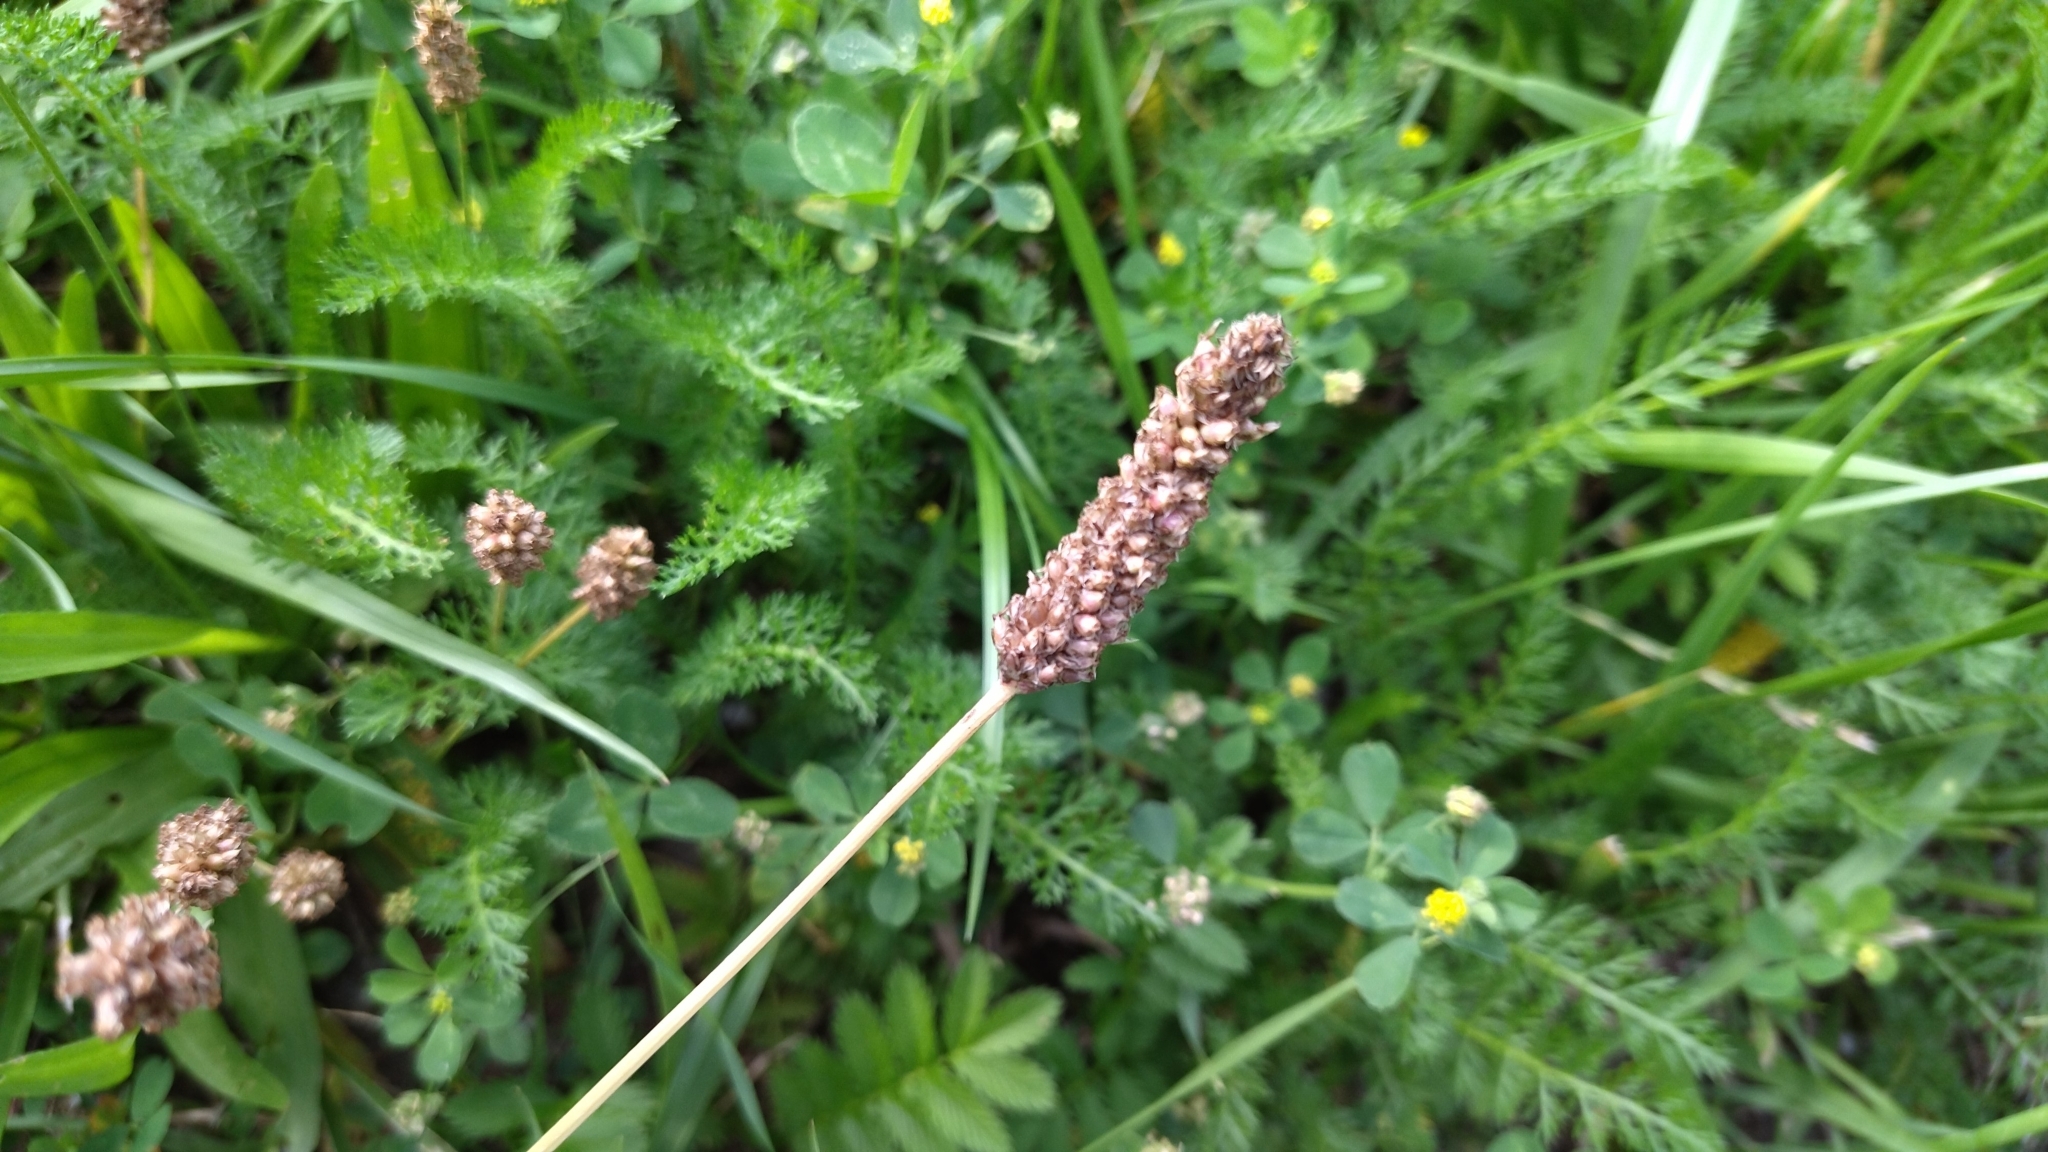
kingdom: Plantae
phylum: Tracheophyta
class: Magnoliopsida
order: Lamiales
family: Plantaginaceae
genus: Plantago
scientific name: Plantago lanceolata
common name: Ribwort plantain
